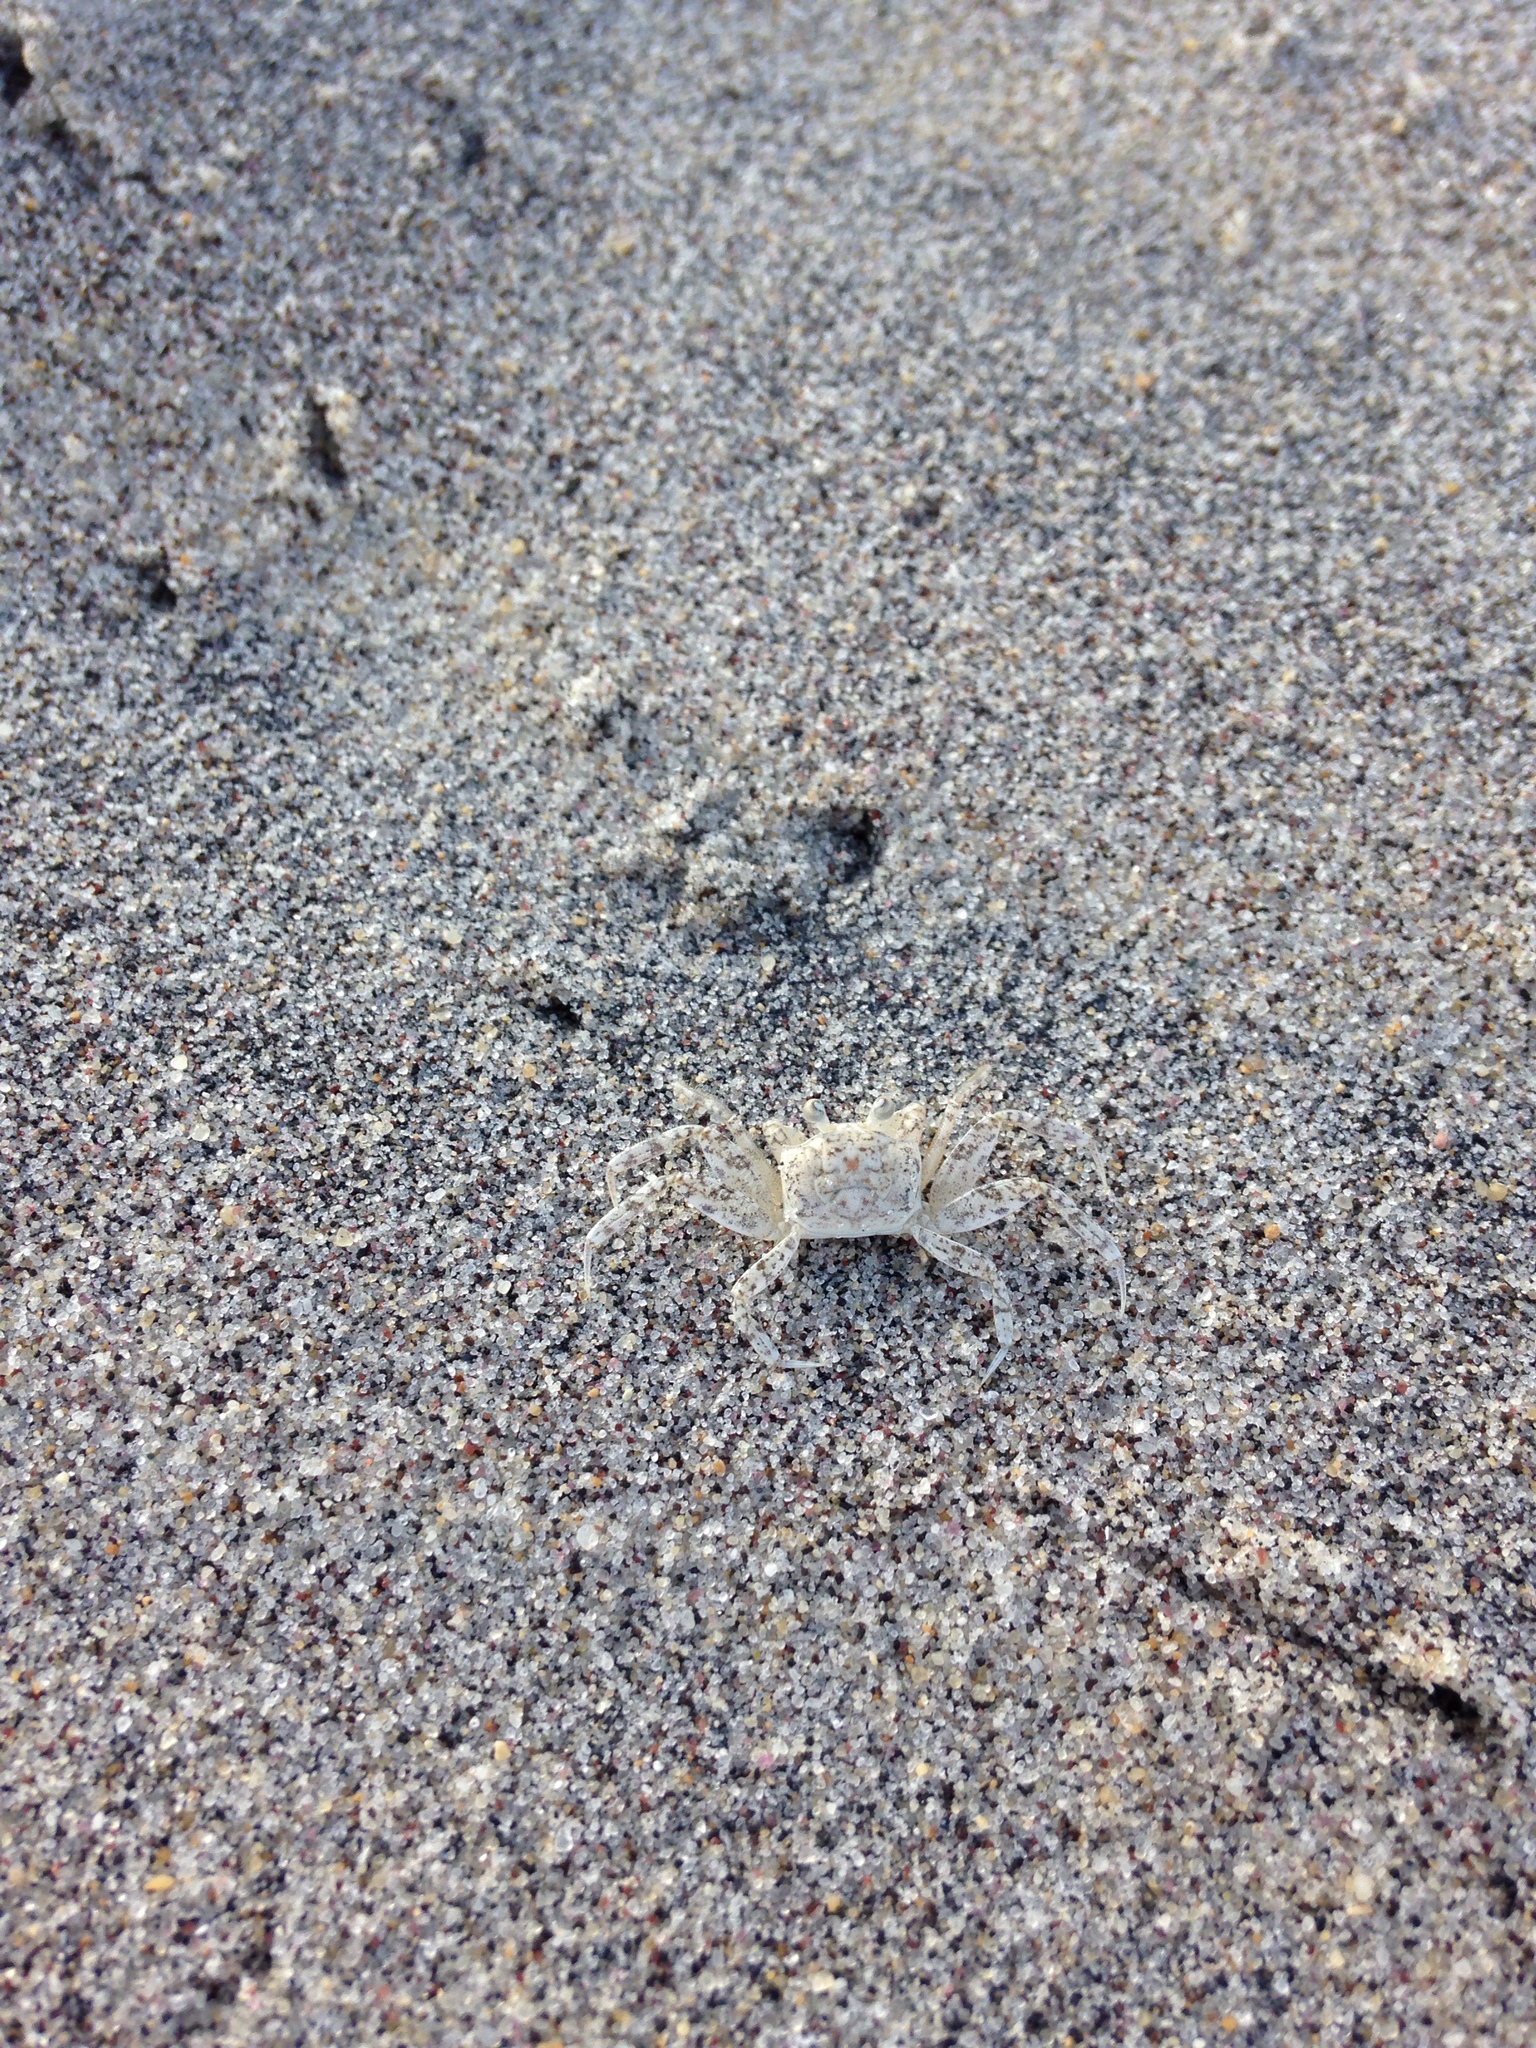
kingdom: Animalia
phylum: Arthropoda
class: Malacostraca
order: Decapoda
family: Ocypodidae
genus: Ocypode
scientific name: Ocypode quadrata
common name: Ghost crab
